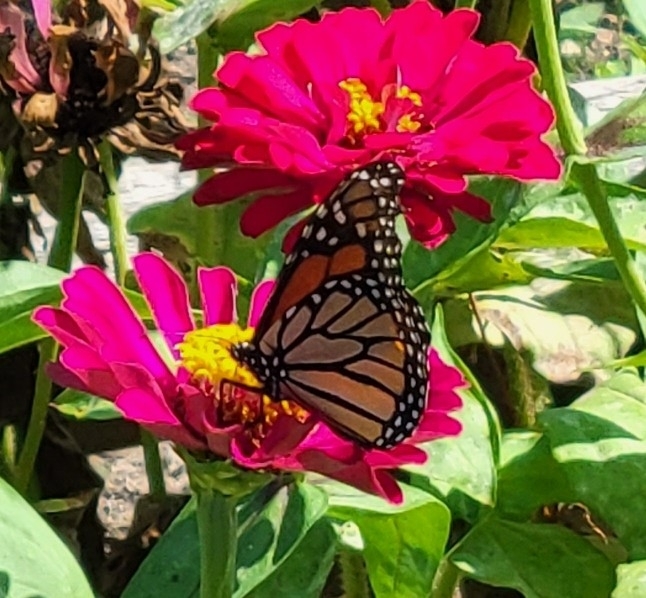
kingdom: Animalia
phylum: Arthropoda
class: Insecta
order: Lepidoptera
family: Nymphalidae
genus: Danaus
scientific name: Danaus plexippus
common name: Monarch
